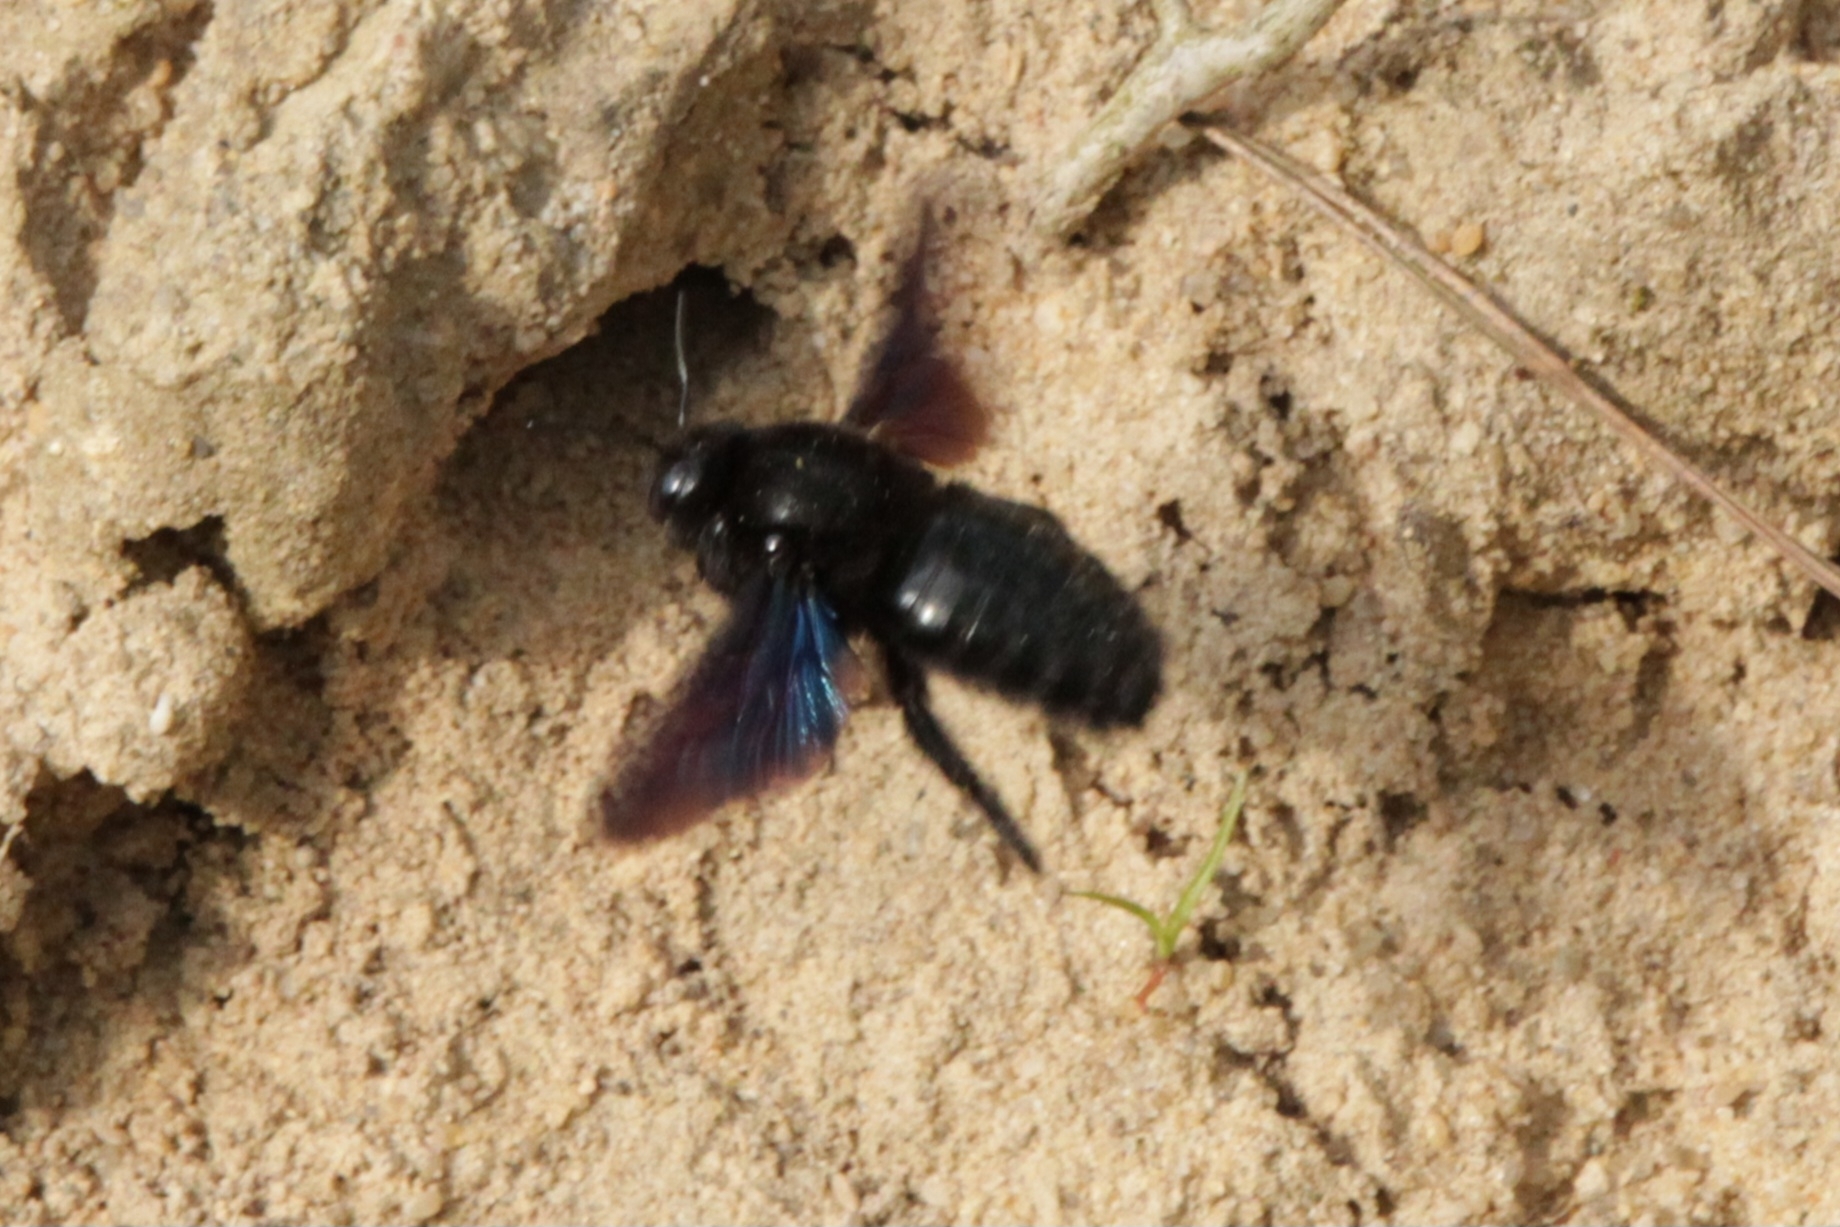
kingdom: Animalia
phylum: Arthropoda
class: Insecta
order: Hymenoptera
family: Apidae
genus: Xylocopa
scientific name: Xylocopa valga
